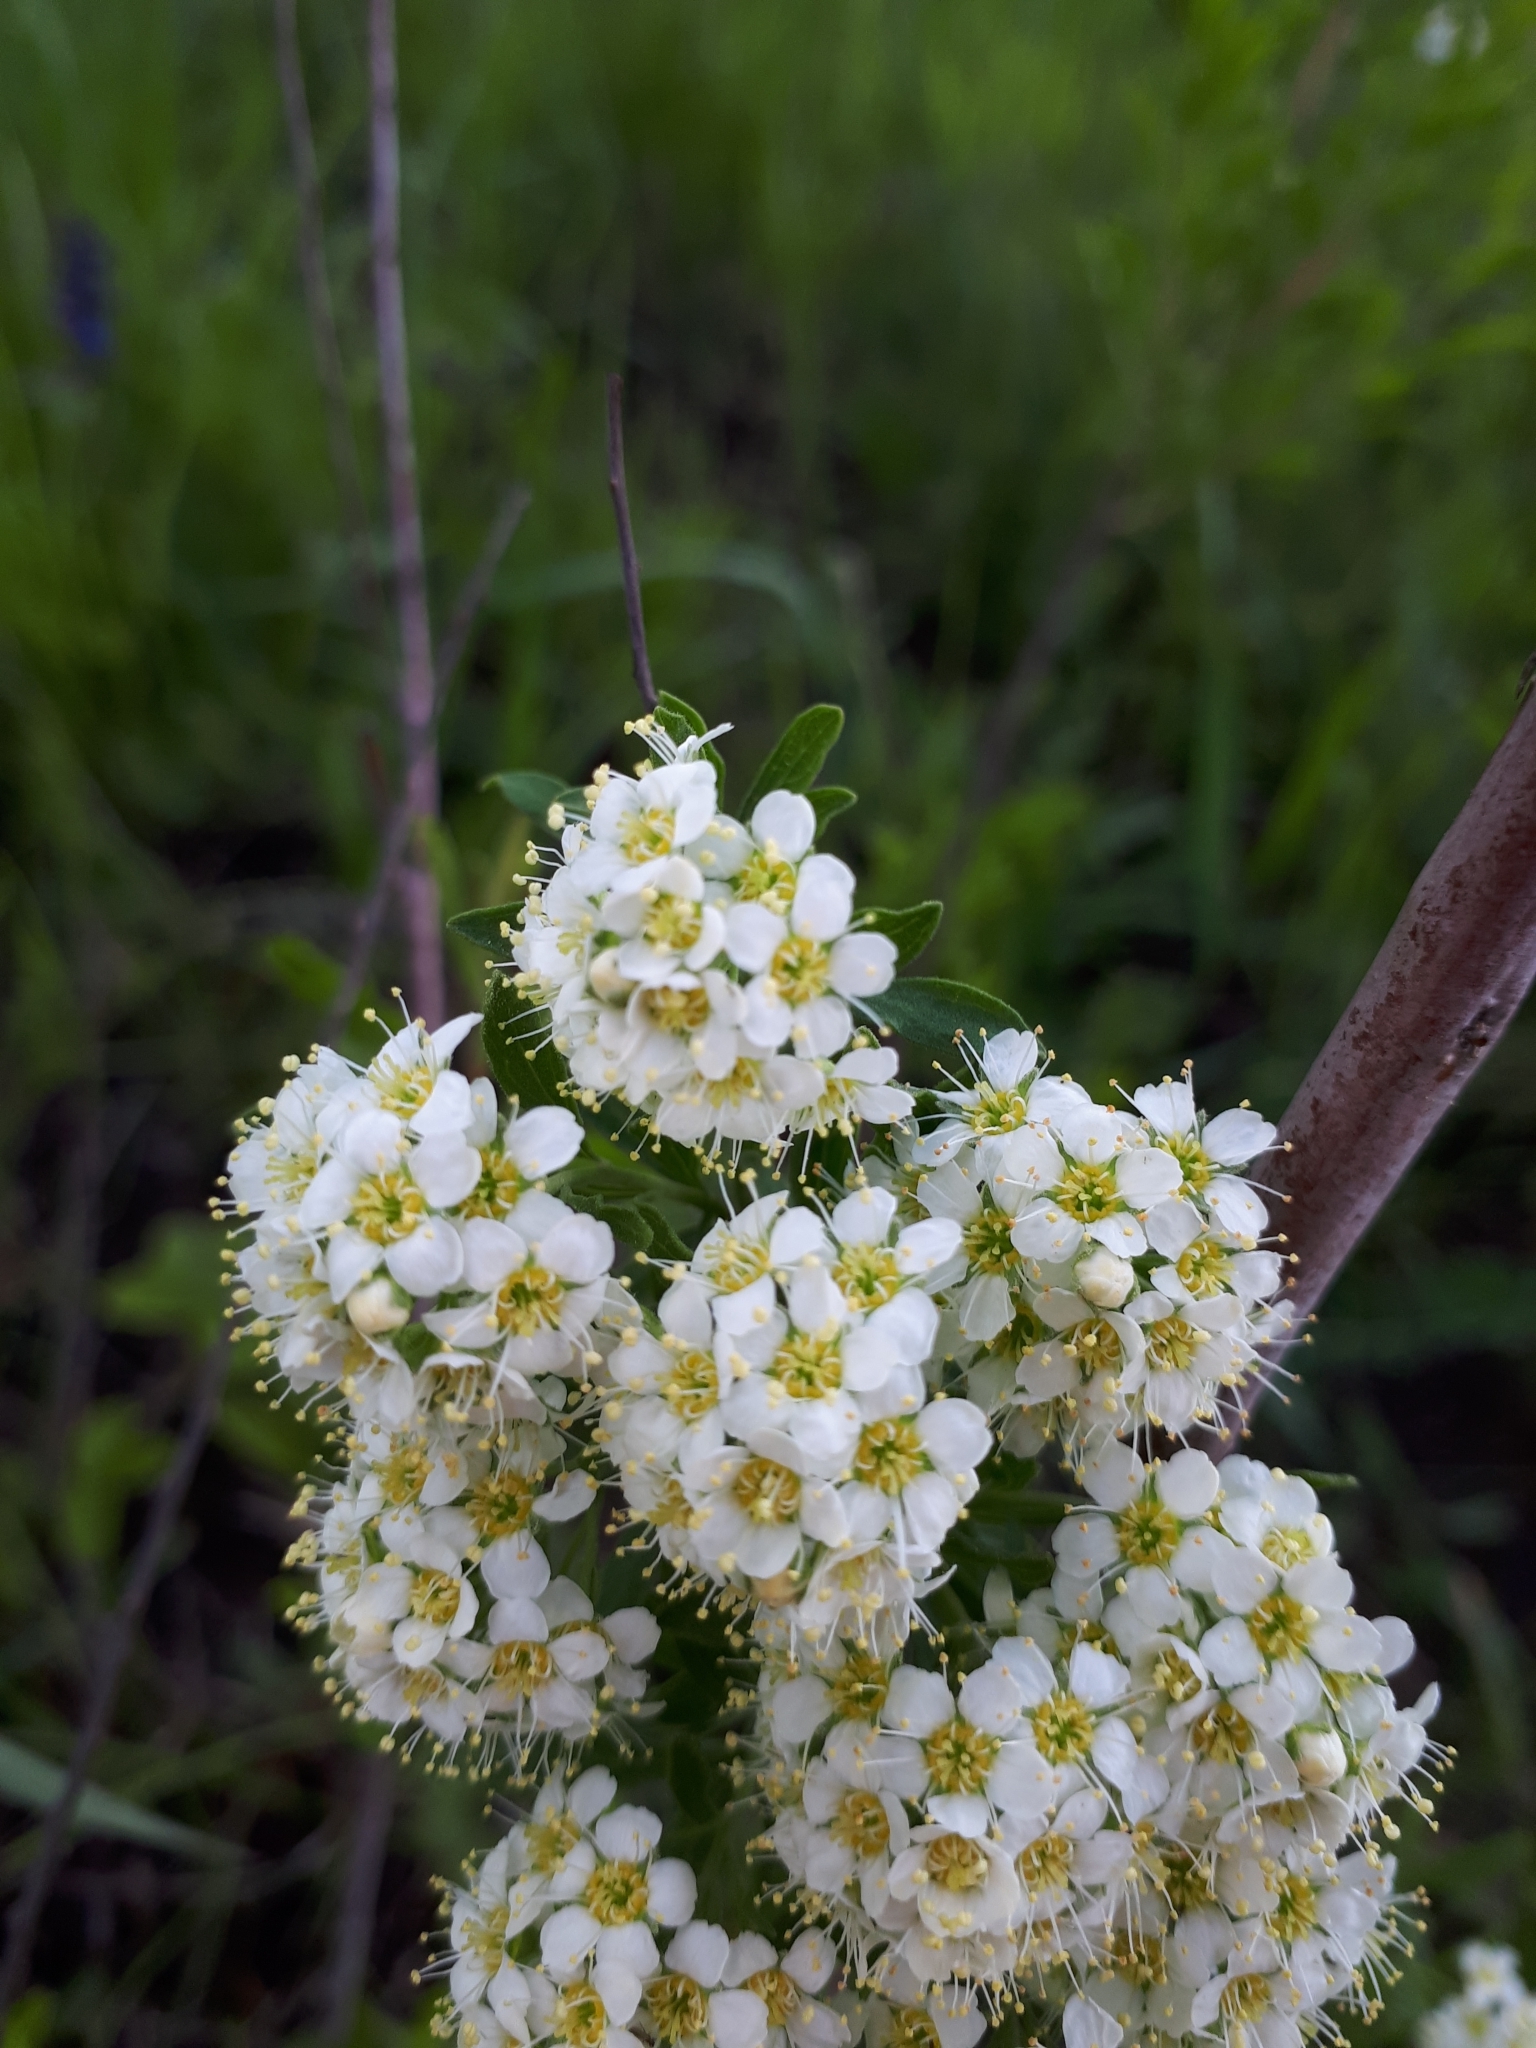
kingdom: Plantae
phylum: Tracheophyta
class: Magnoliopsida
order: Rosales
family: Rosaceae
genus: Spiraea
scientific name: Spiraea crenata
